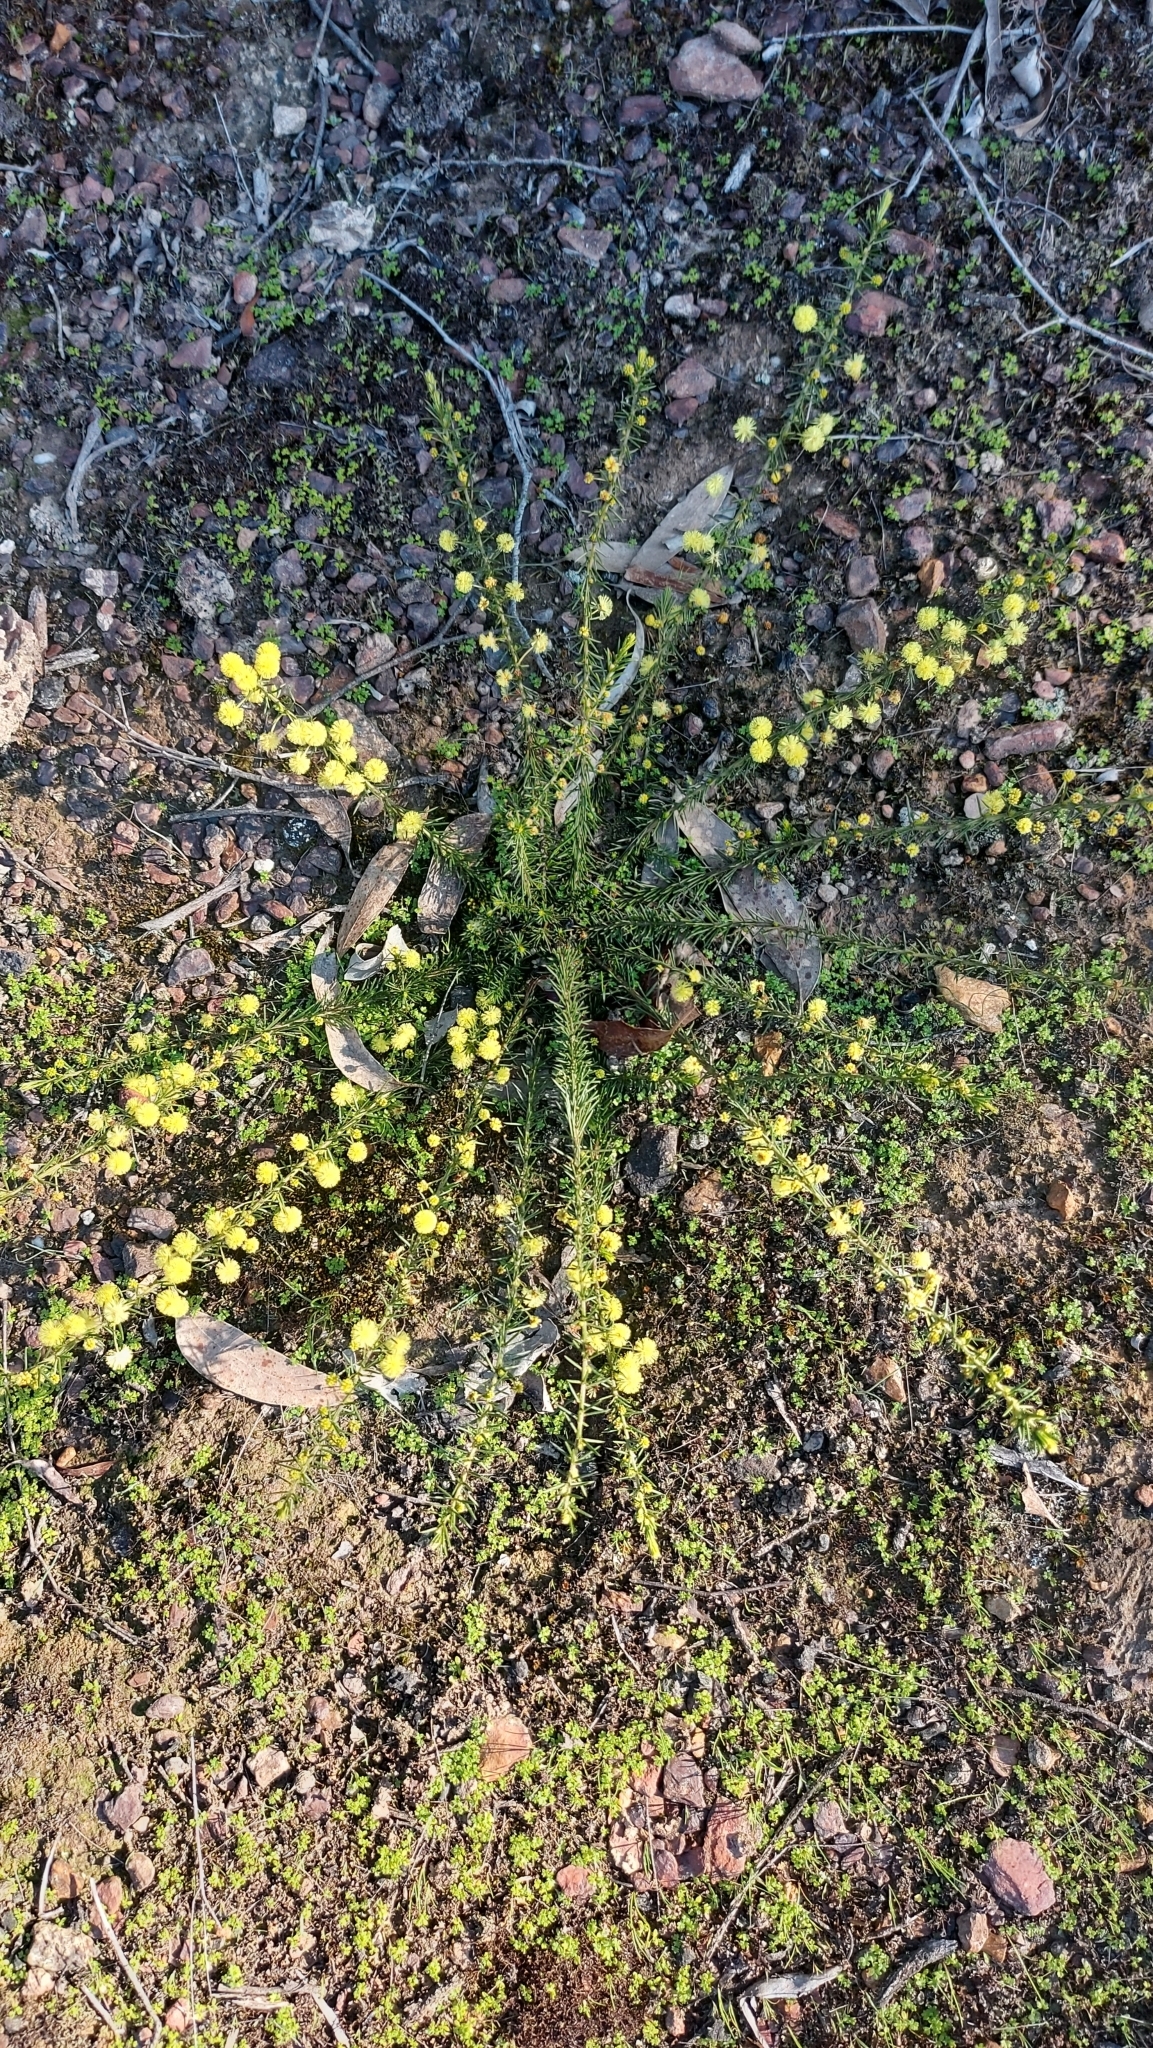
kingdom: Plantae
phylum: Tracheophyta
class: Magnoliopsida
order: Fabales
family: Fabaceae
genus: Acacia
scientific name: Acacia aculeatissima
